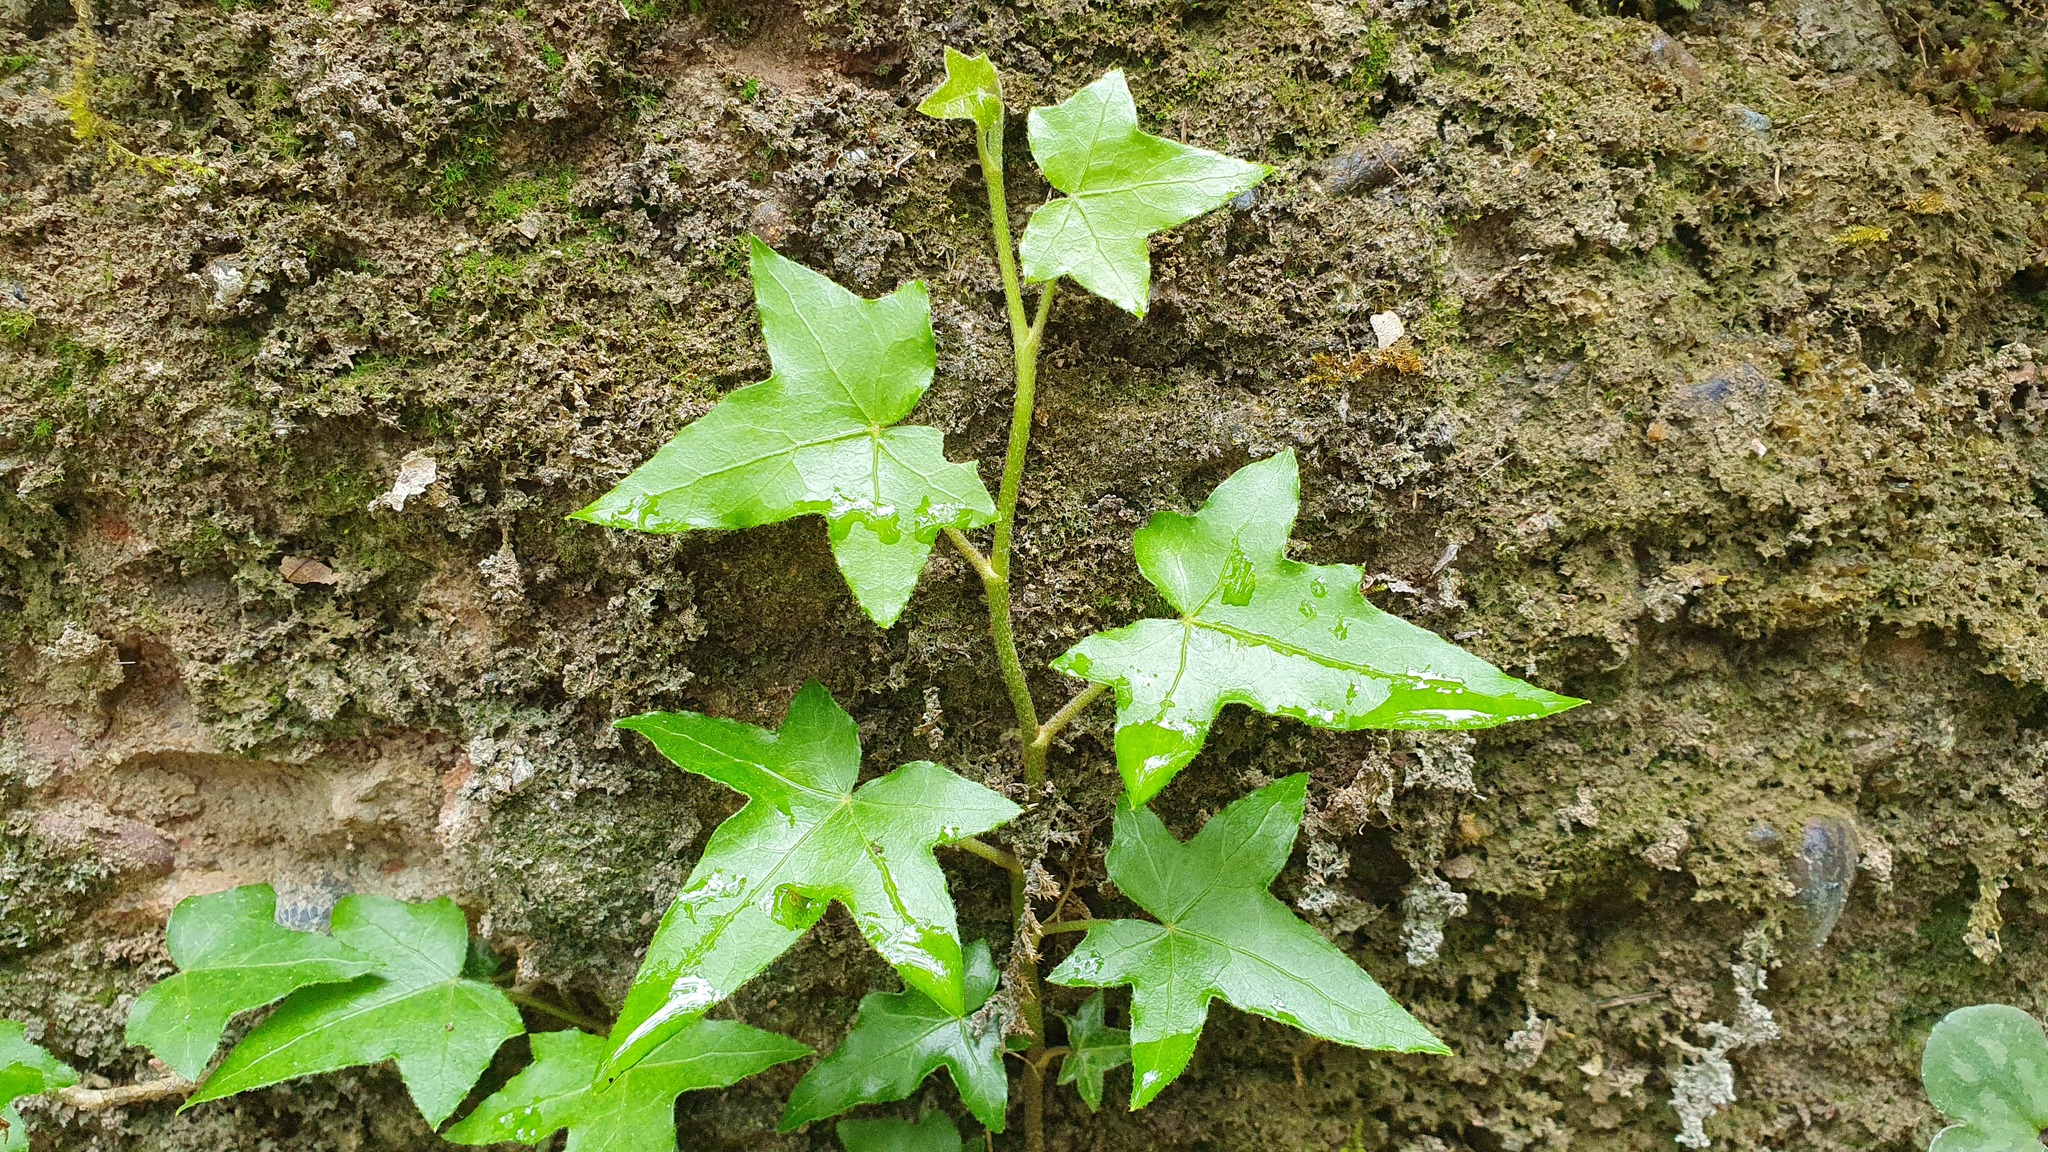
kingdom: Plantae
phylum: Tracheophyta
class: Magnoliopsida
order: Apiales
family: Araliaceae
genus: Hedera
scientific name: Hedera helix
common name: Ivy
